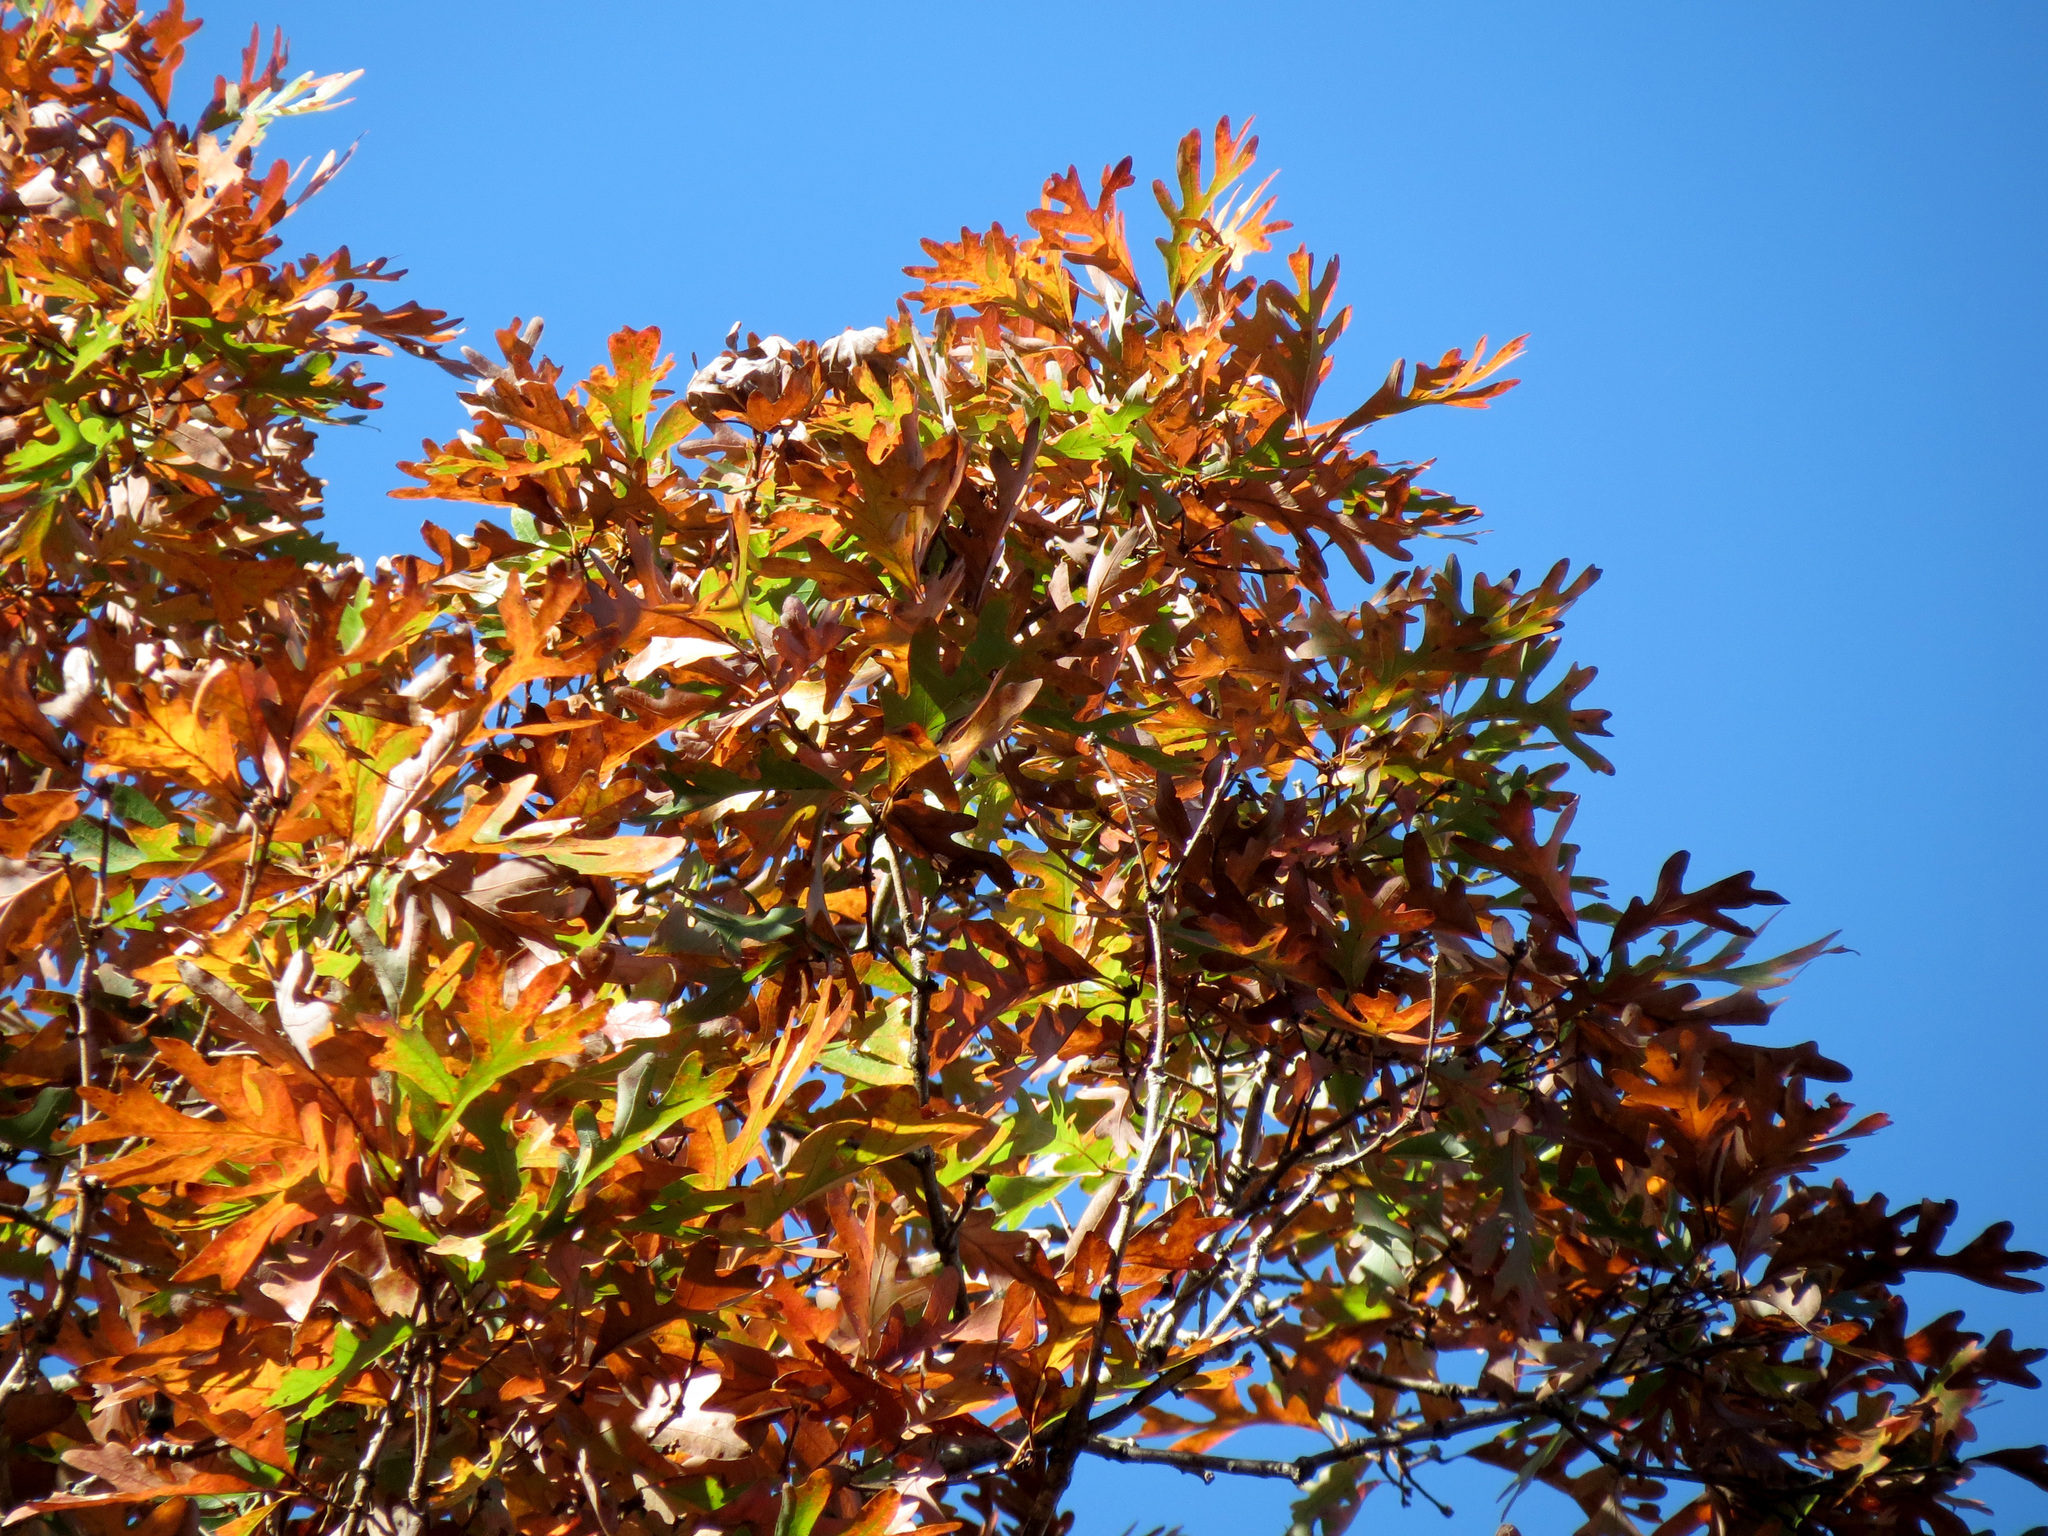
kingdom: Plantae
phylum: Tracheophyta
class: Magnoliopsida
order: Fagales
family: Fagaceae
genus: Quercus
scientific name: Quercus alba
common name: White oak
